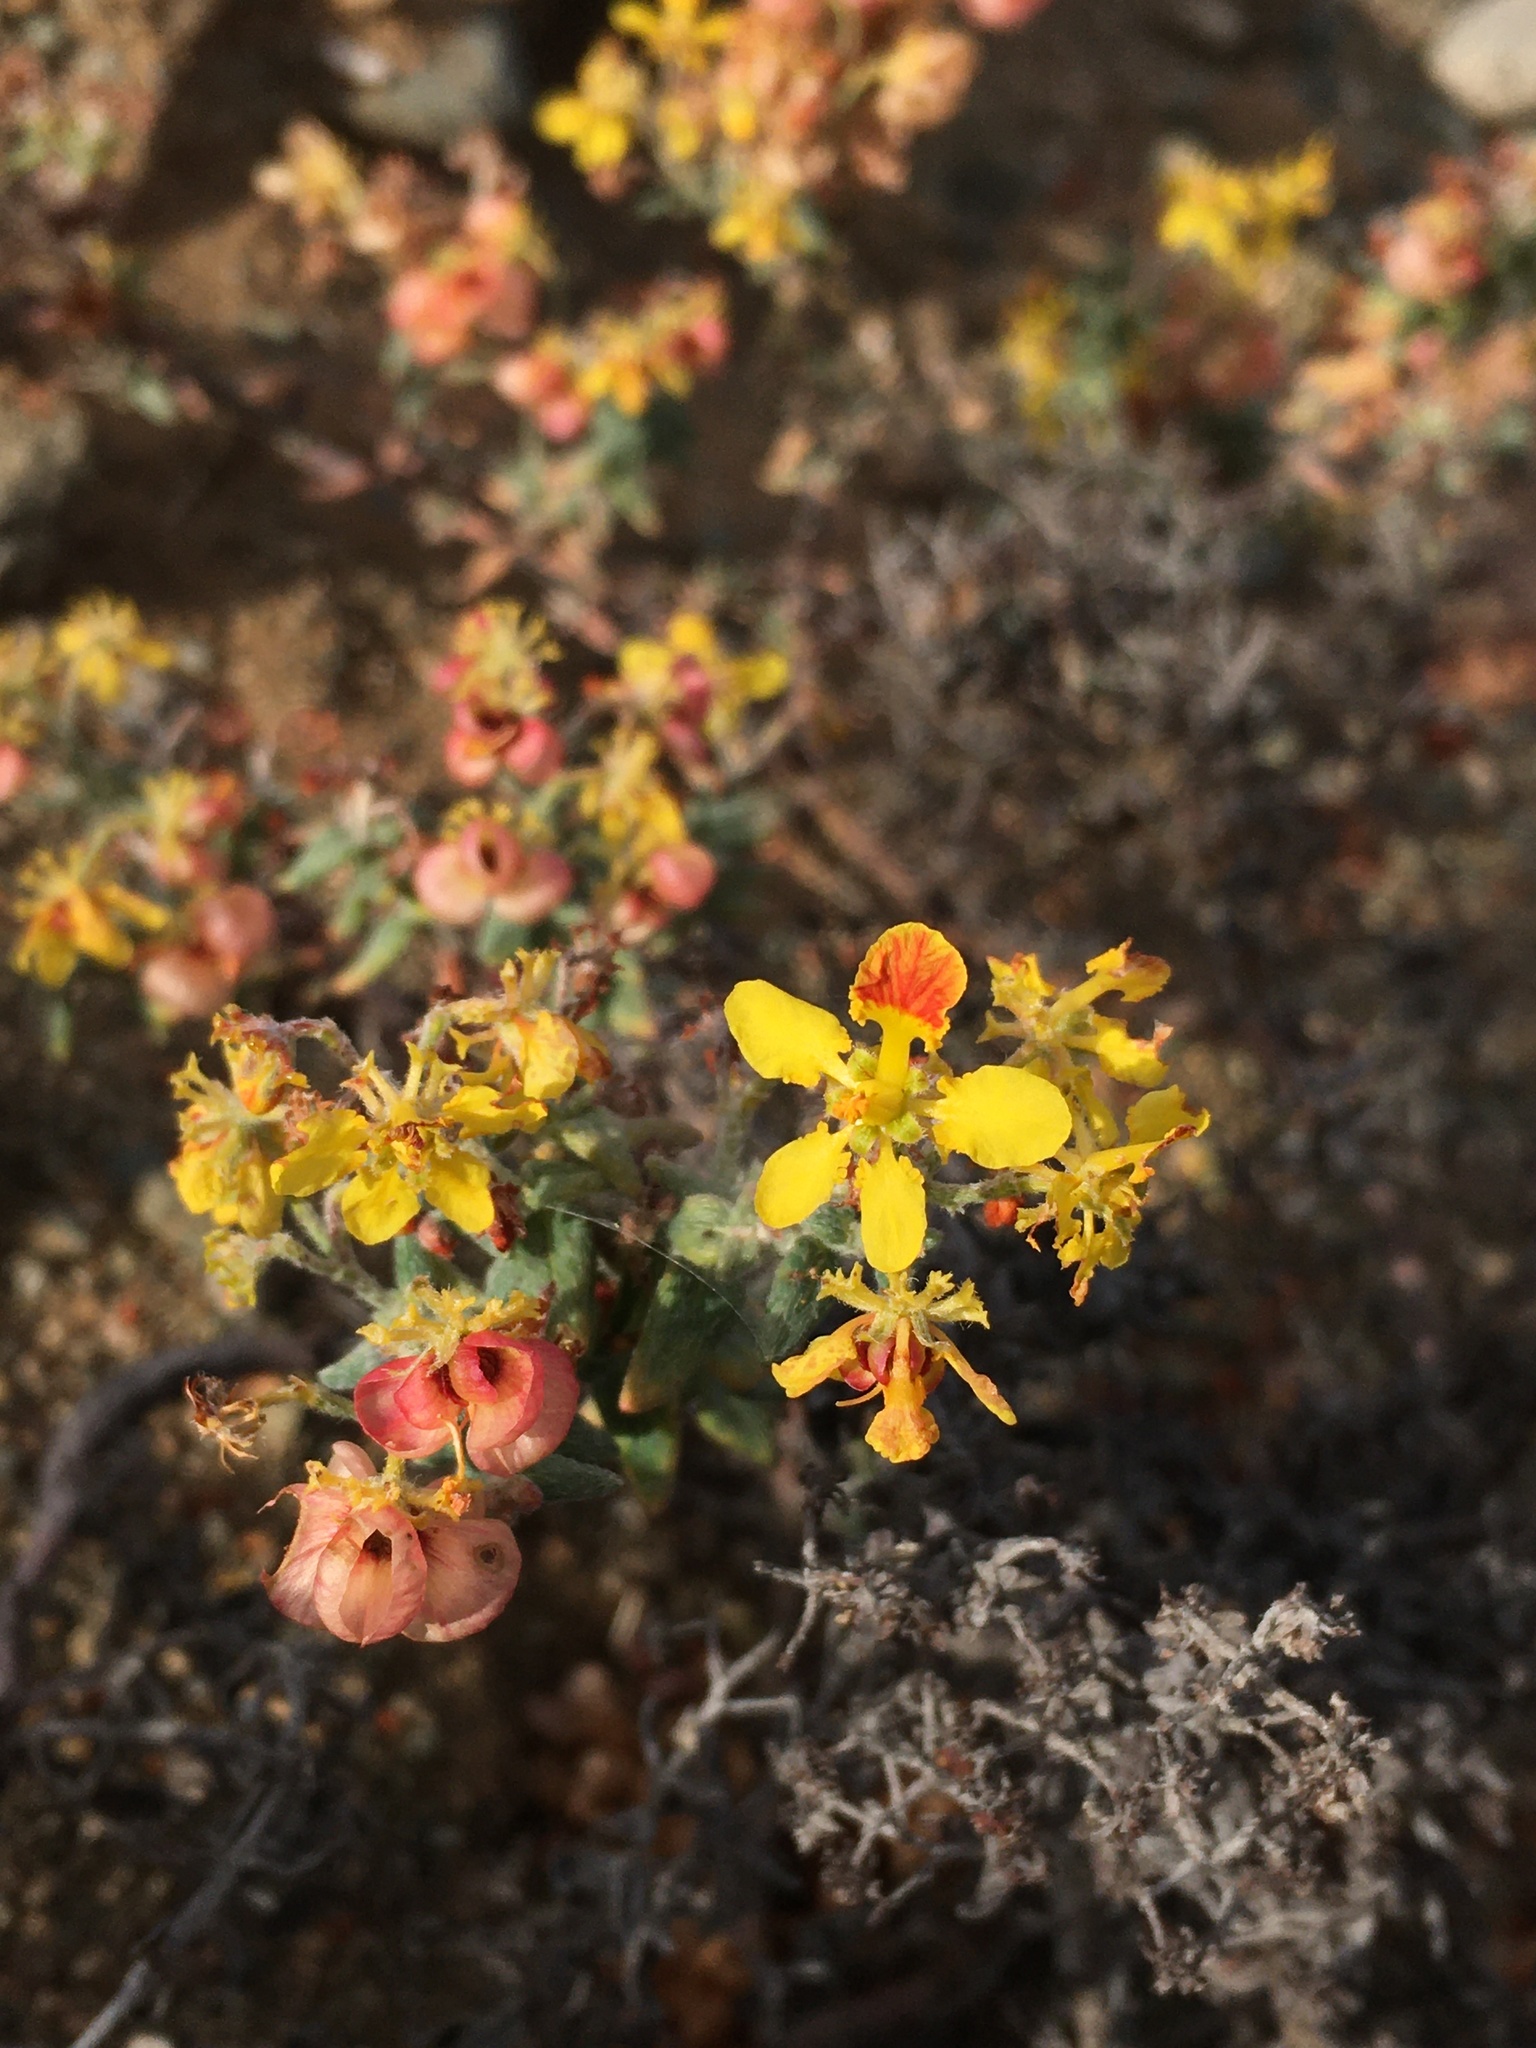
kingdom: Plantae
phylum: Tracheophyta
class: Magnoliopsida
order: Malpighiales
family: Malpighiaceae
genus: Dinemandra
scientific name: Dinemandra ericoides
